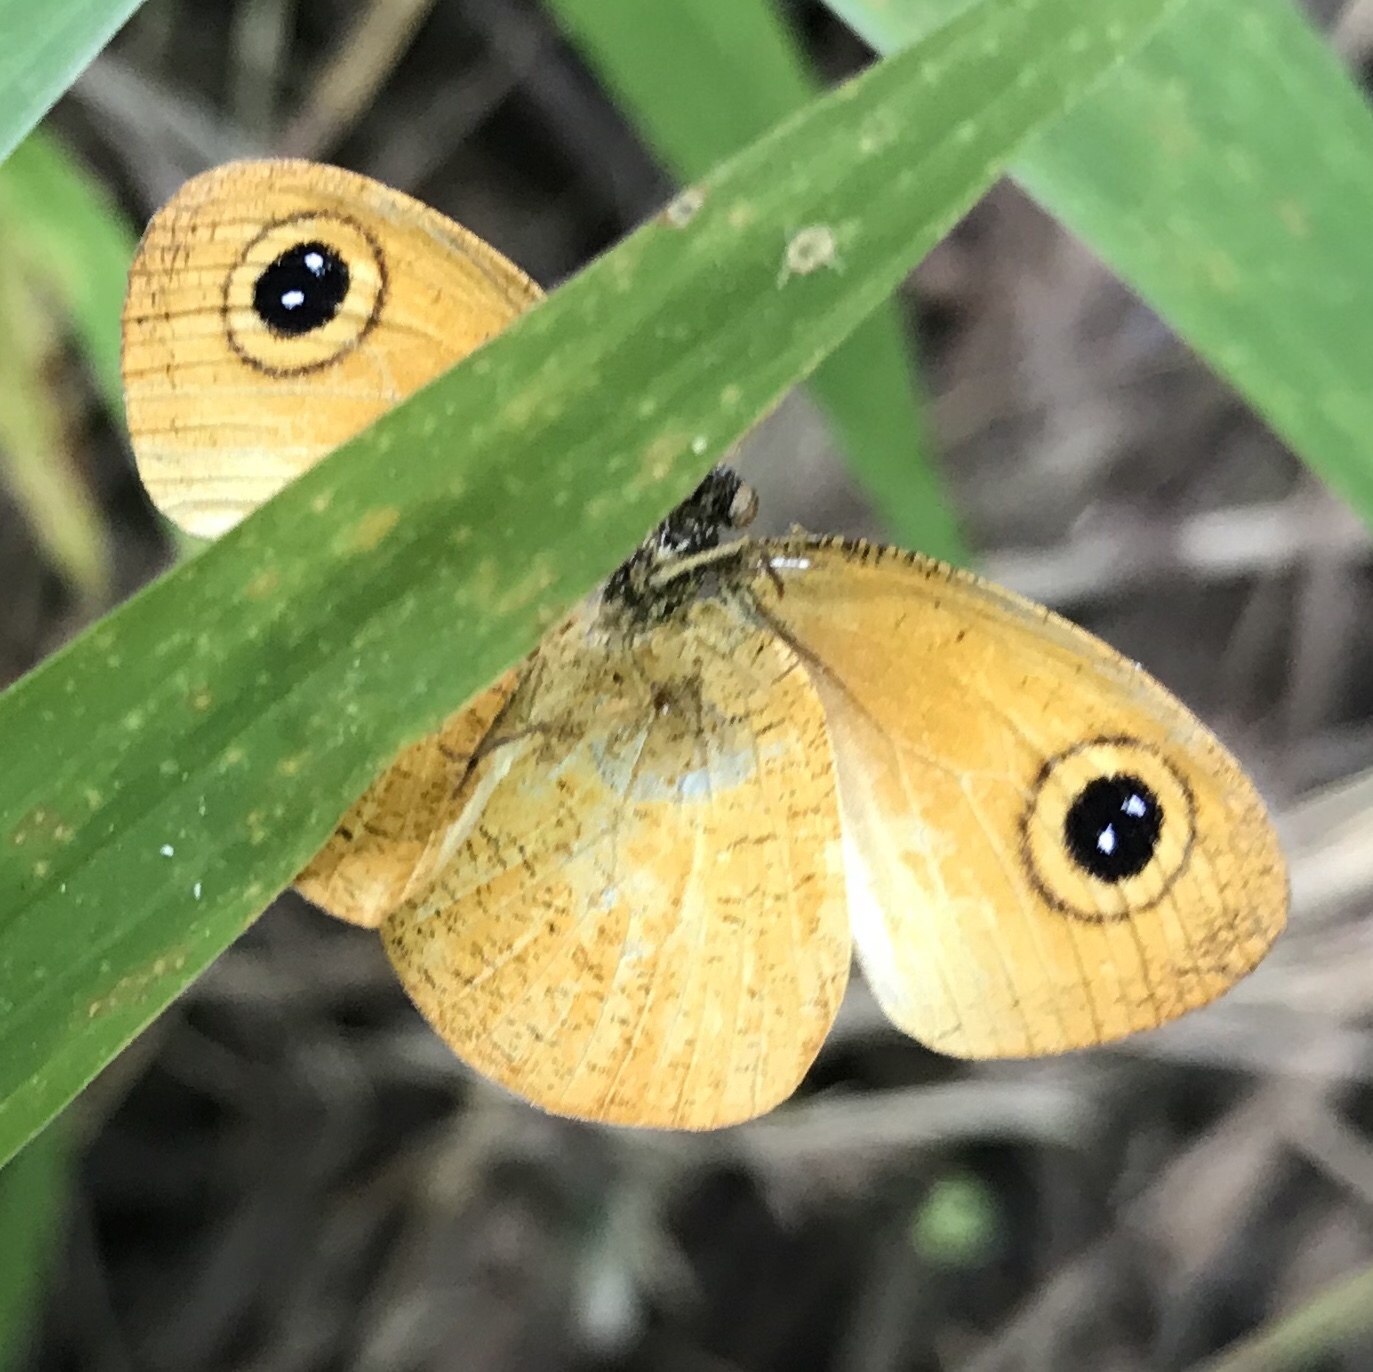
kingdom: Animalia
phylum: Arthropoda
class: Insecta
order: Lepidoptera
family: Nymphalidae
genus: Ypthima
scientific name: Ypthima sesara
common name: Common fijian ringlet
